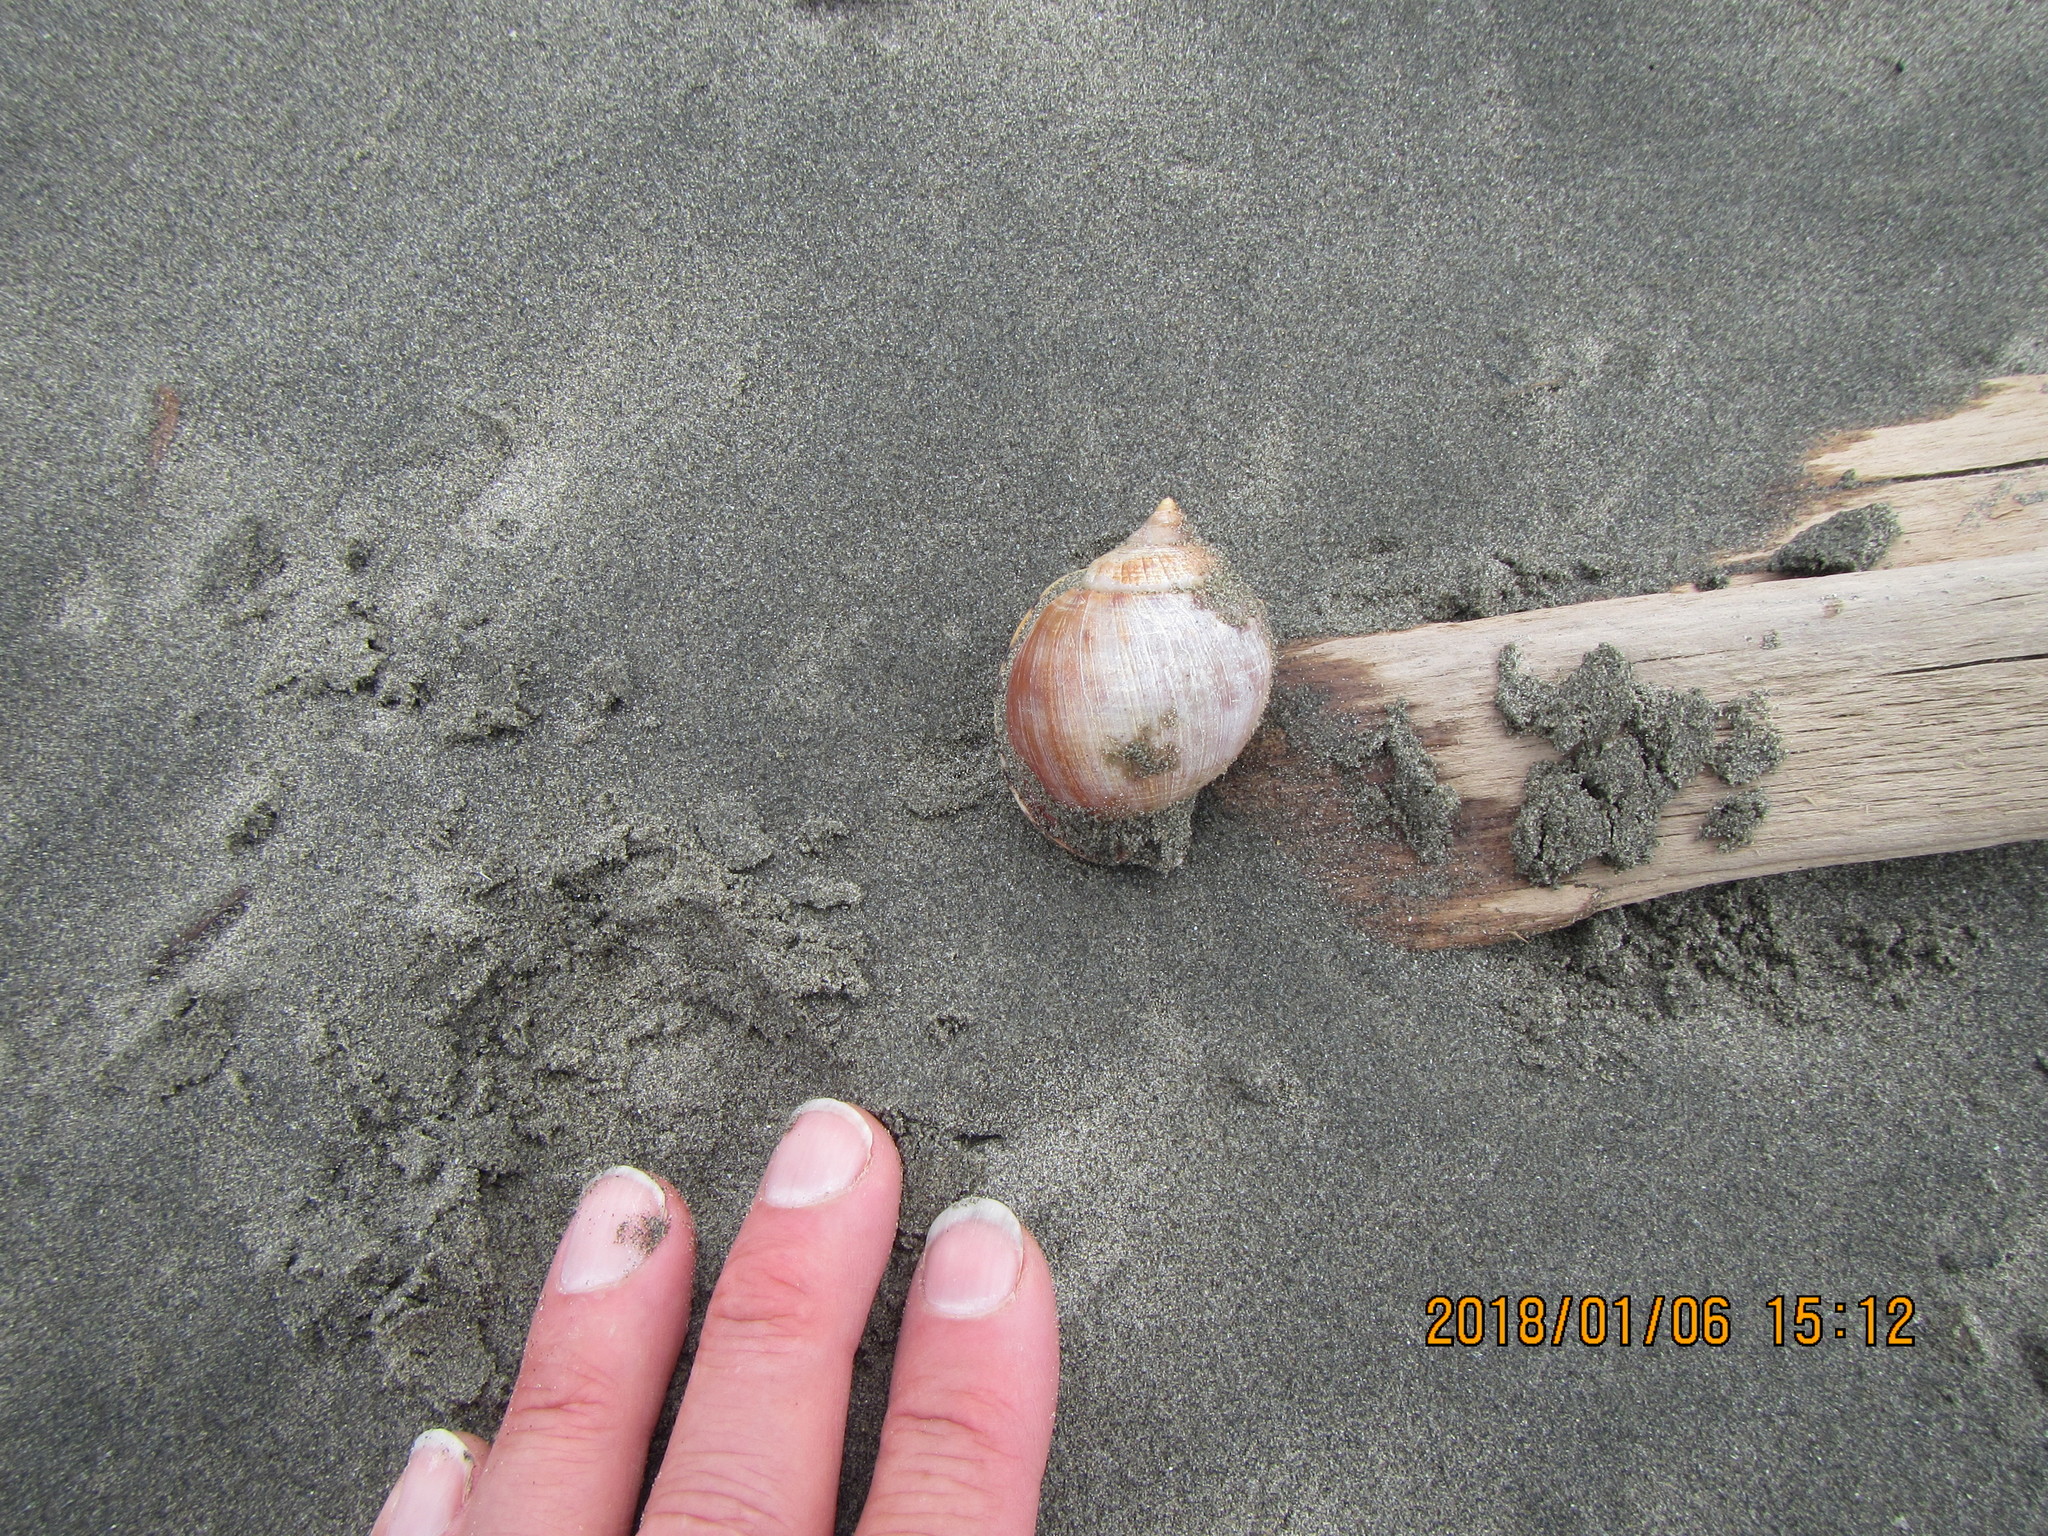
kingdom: Animalia
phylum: Mollusca
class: Gastropoda
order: Littorinimorpha
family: Cassidae
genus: Semicassis
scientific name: Semicassis pyrum
